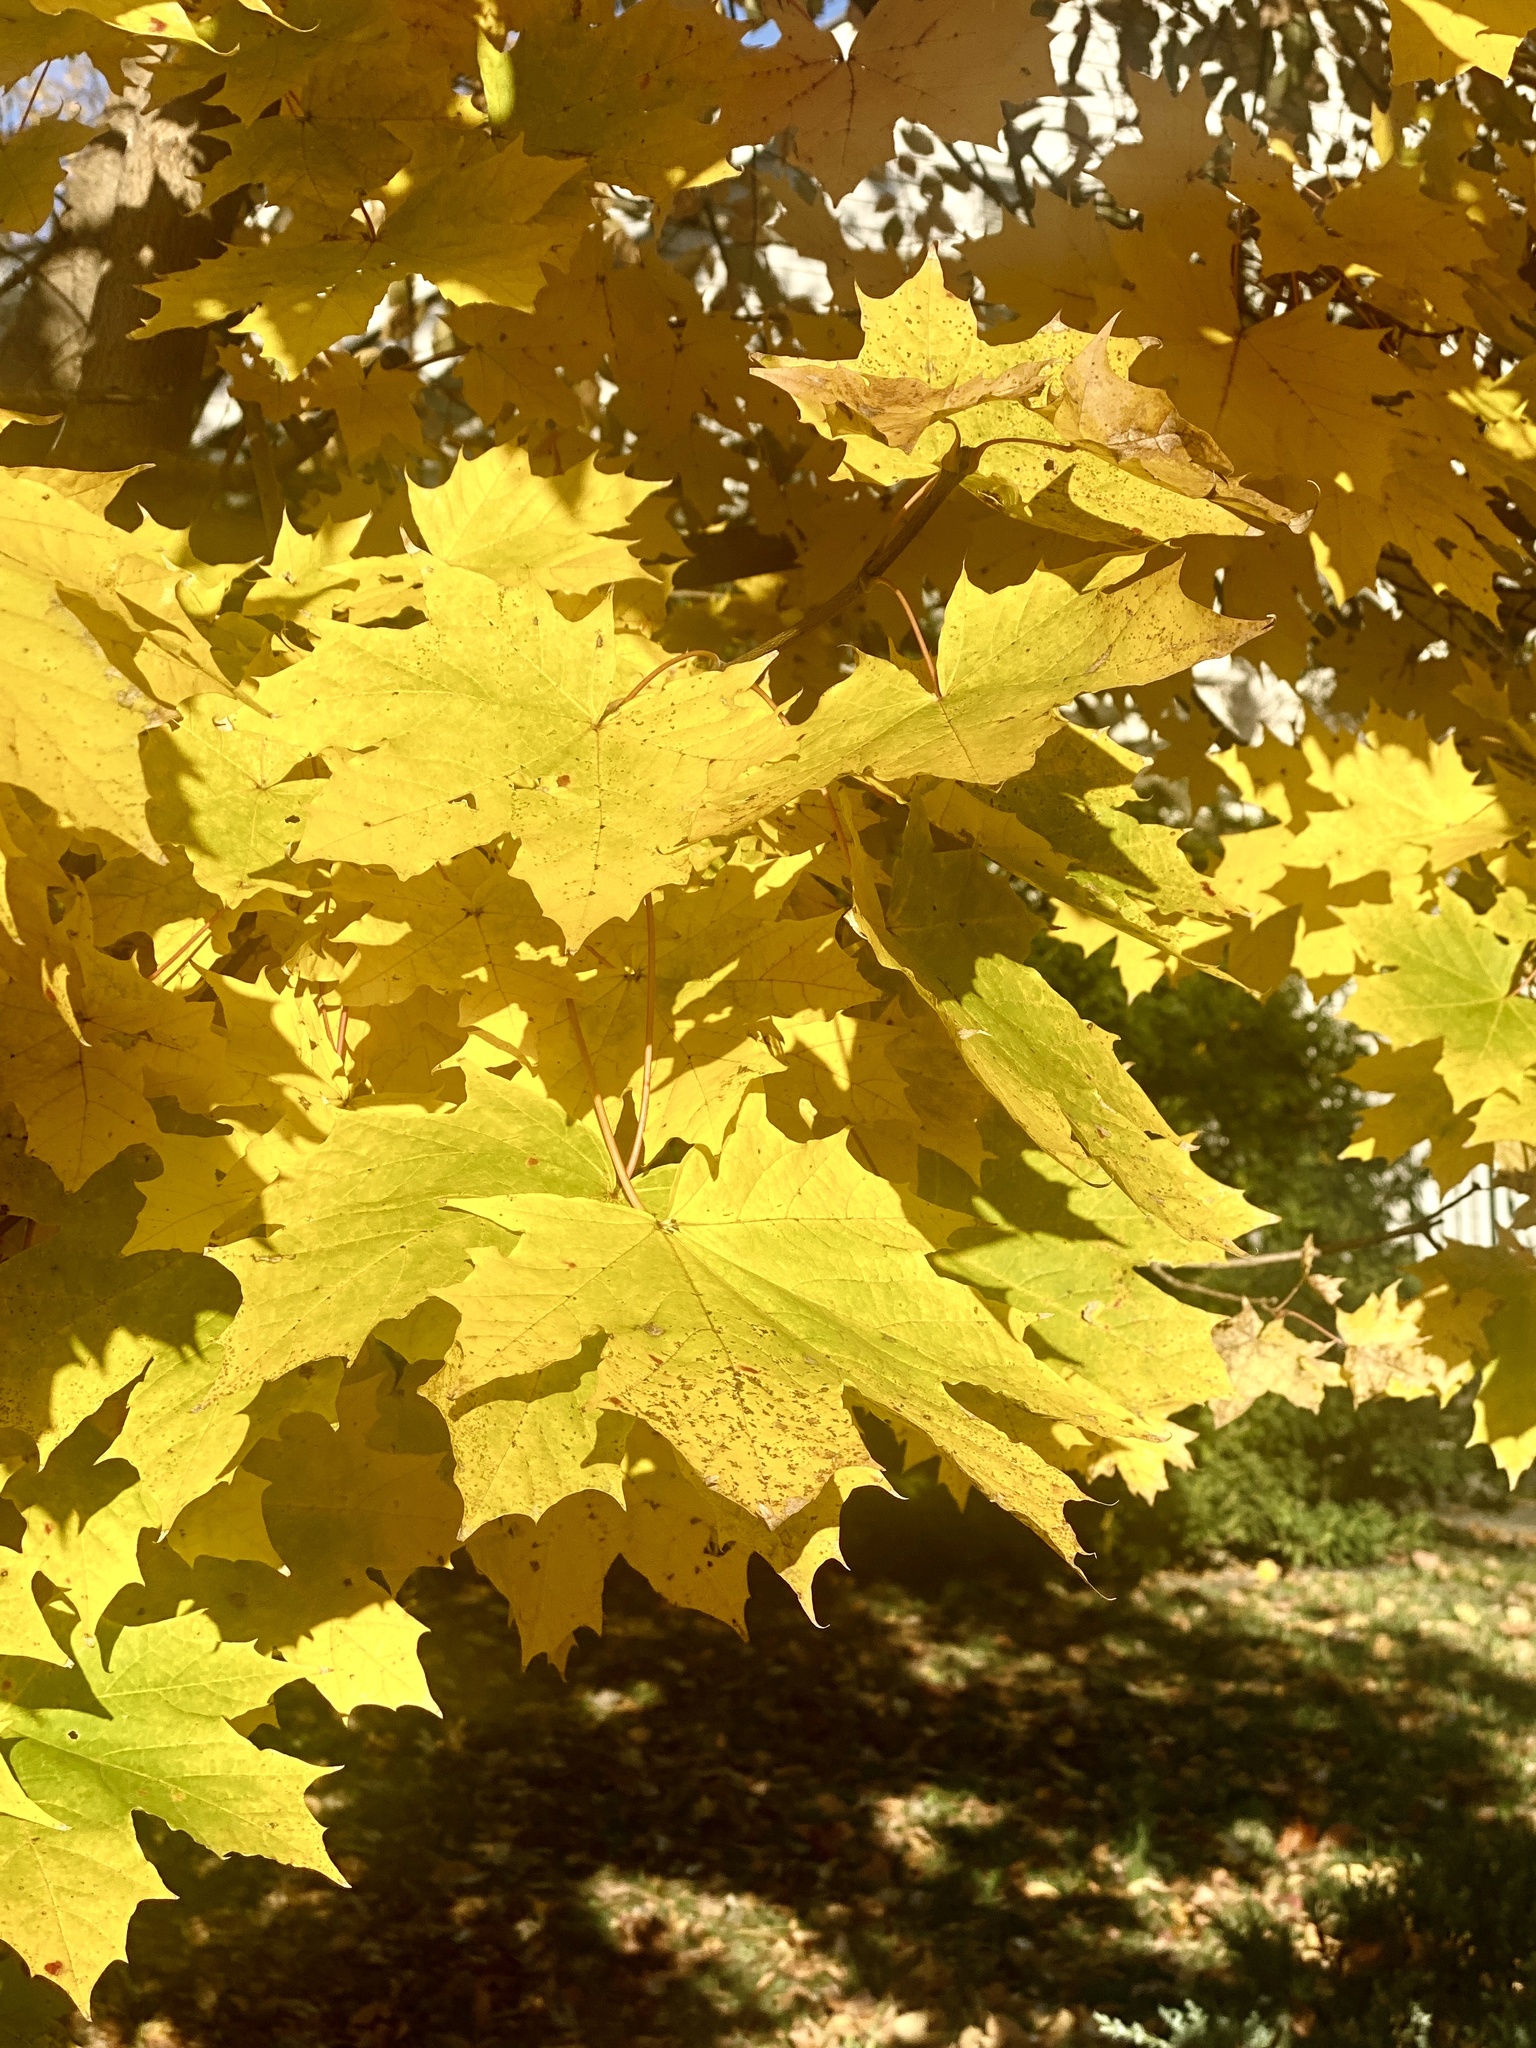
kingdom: Plantae
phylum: Tracheophyta
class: Magnoliopsida
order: Sapindales
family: Sapindaceae
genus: Acer
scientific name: Acer platanoides
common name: Norway maple
